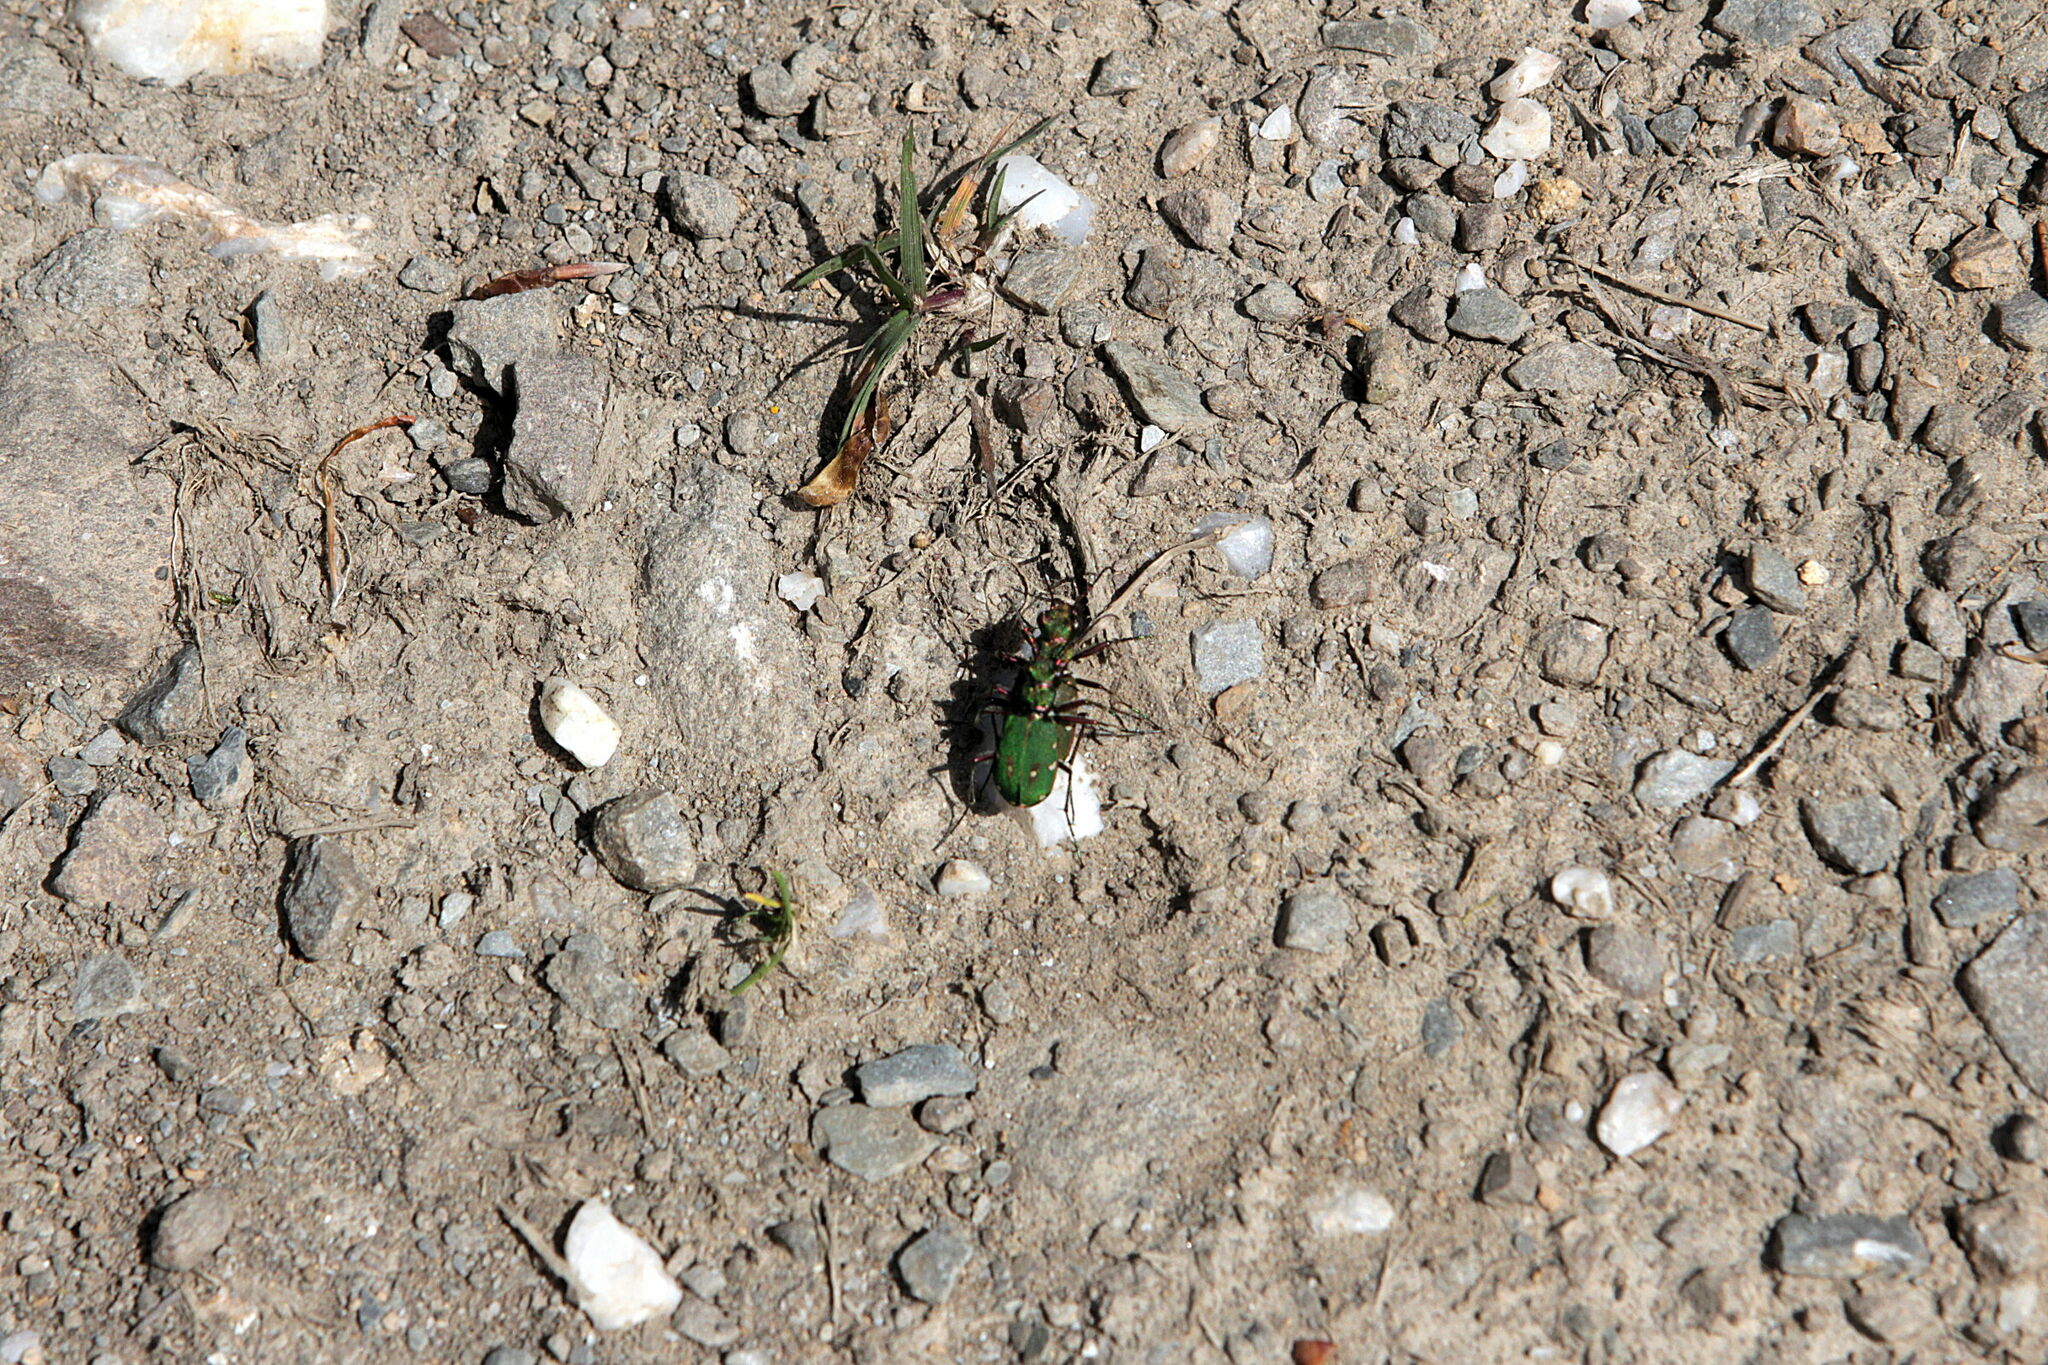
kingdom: Animalia
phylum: Arthropoda
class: Insecta
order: Coleoptera
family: Carabidae
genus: Cicindela
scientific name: Cicindela campestris
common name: Common tiger beetle
